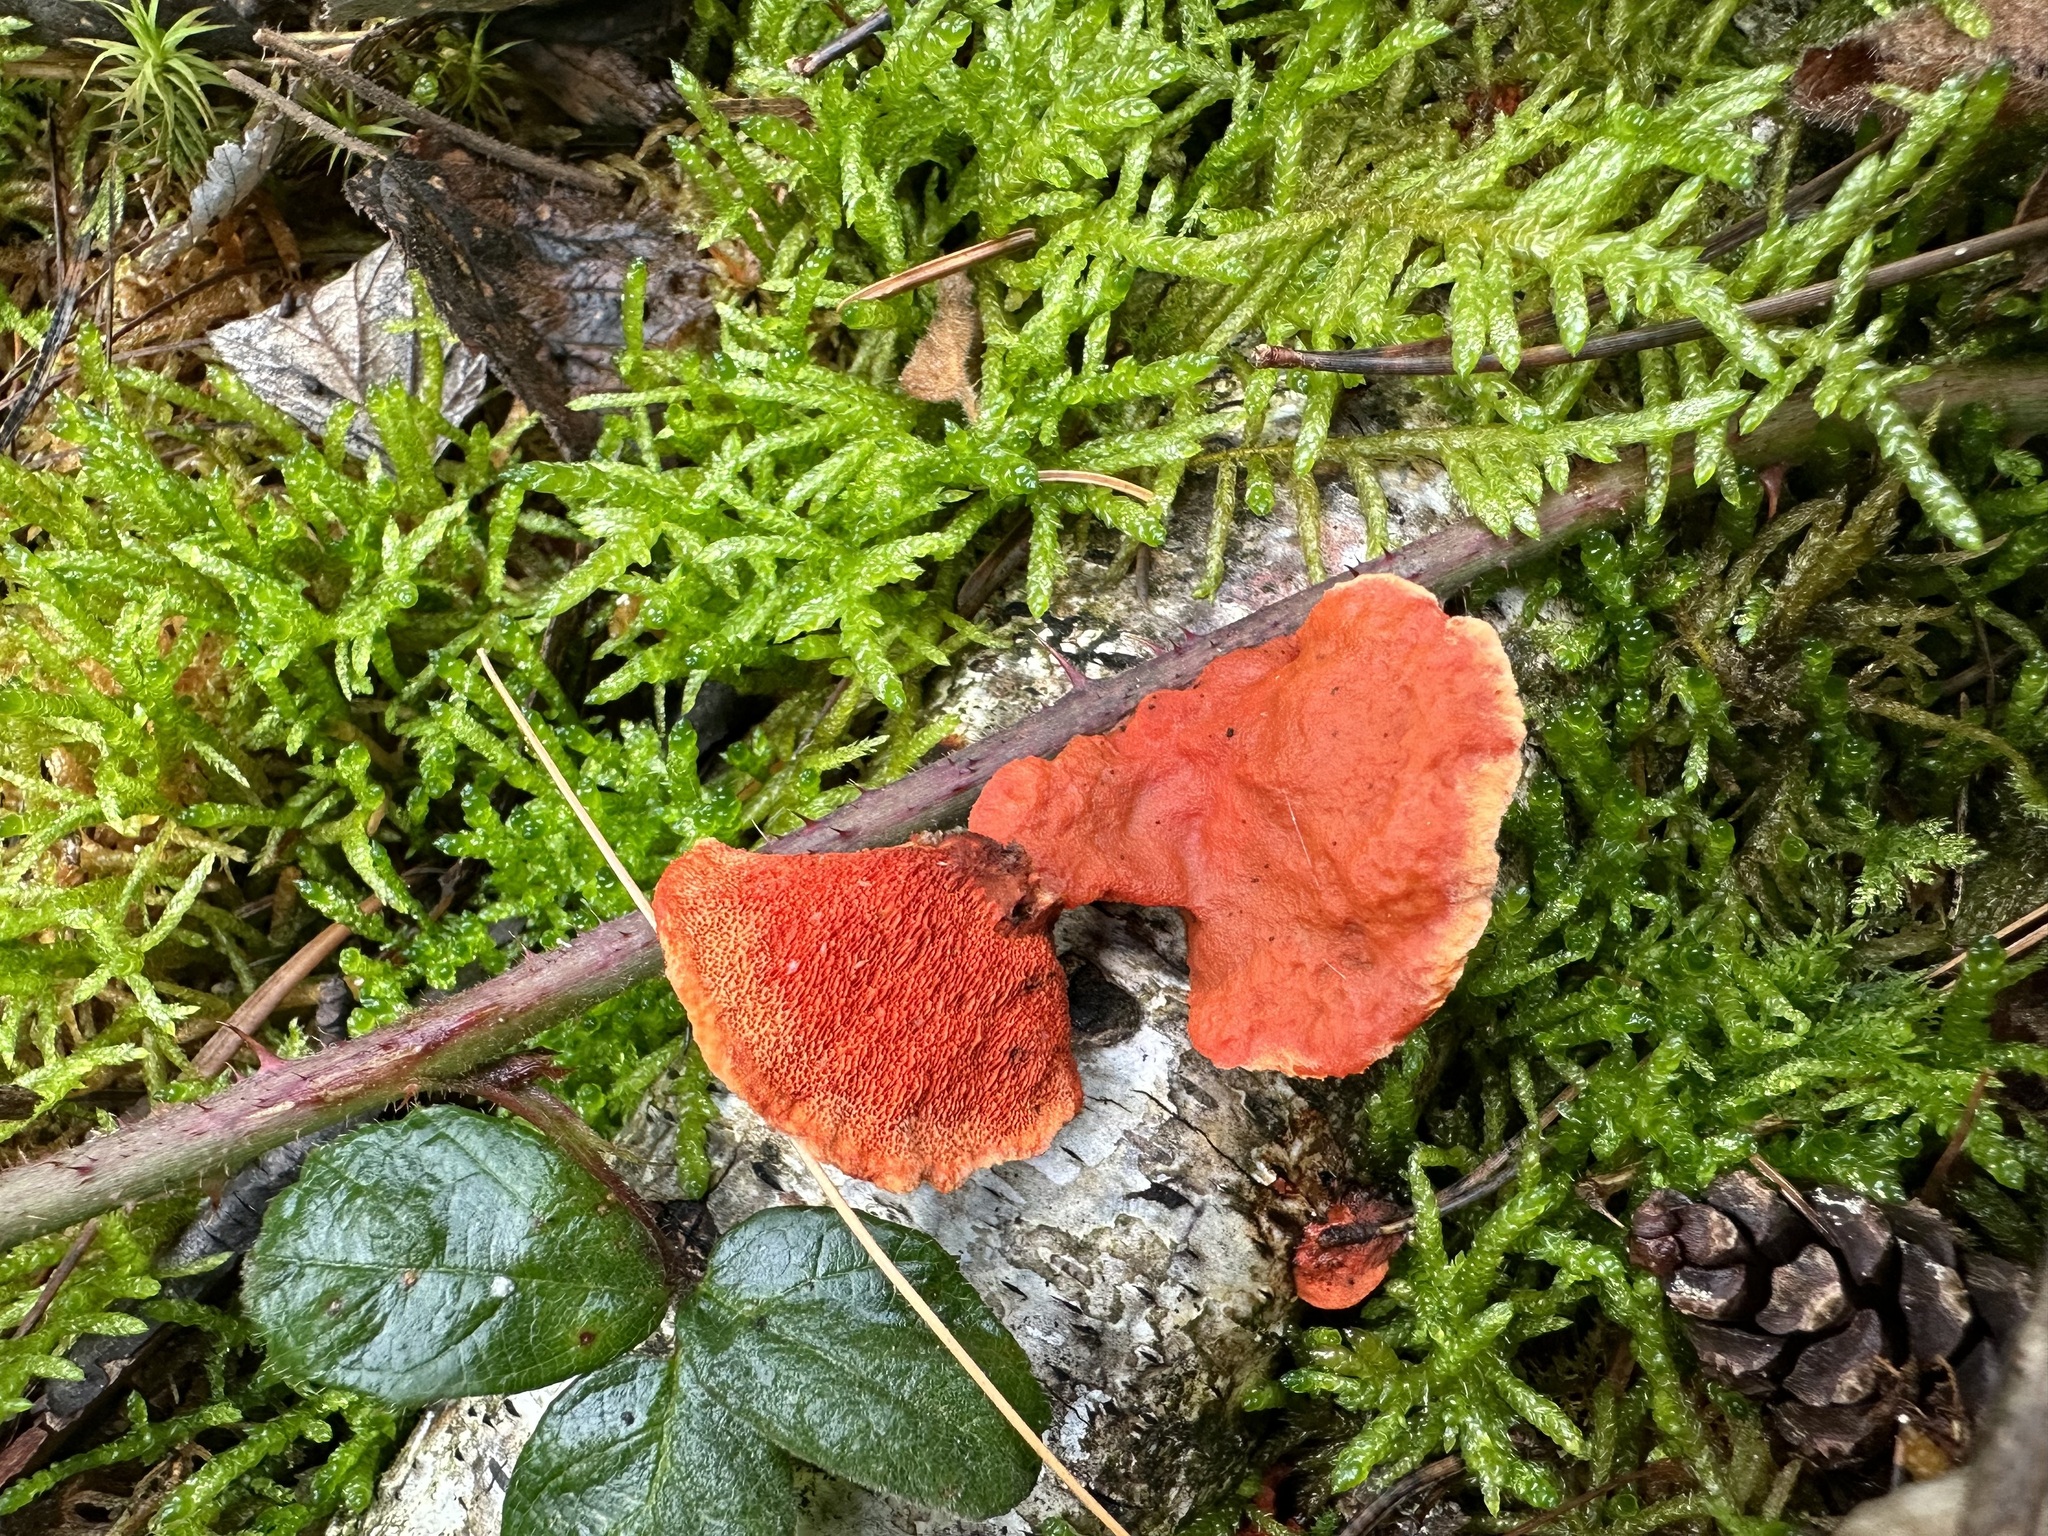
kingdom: Fungi
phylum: Basidiomycota
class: Agaricomycetes
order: Polyporales
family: Polyporaceae
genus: Trametes
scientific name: Trametes cinnabarina
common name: Northern cinnabar polypore
